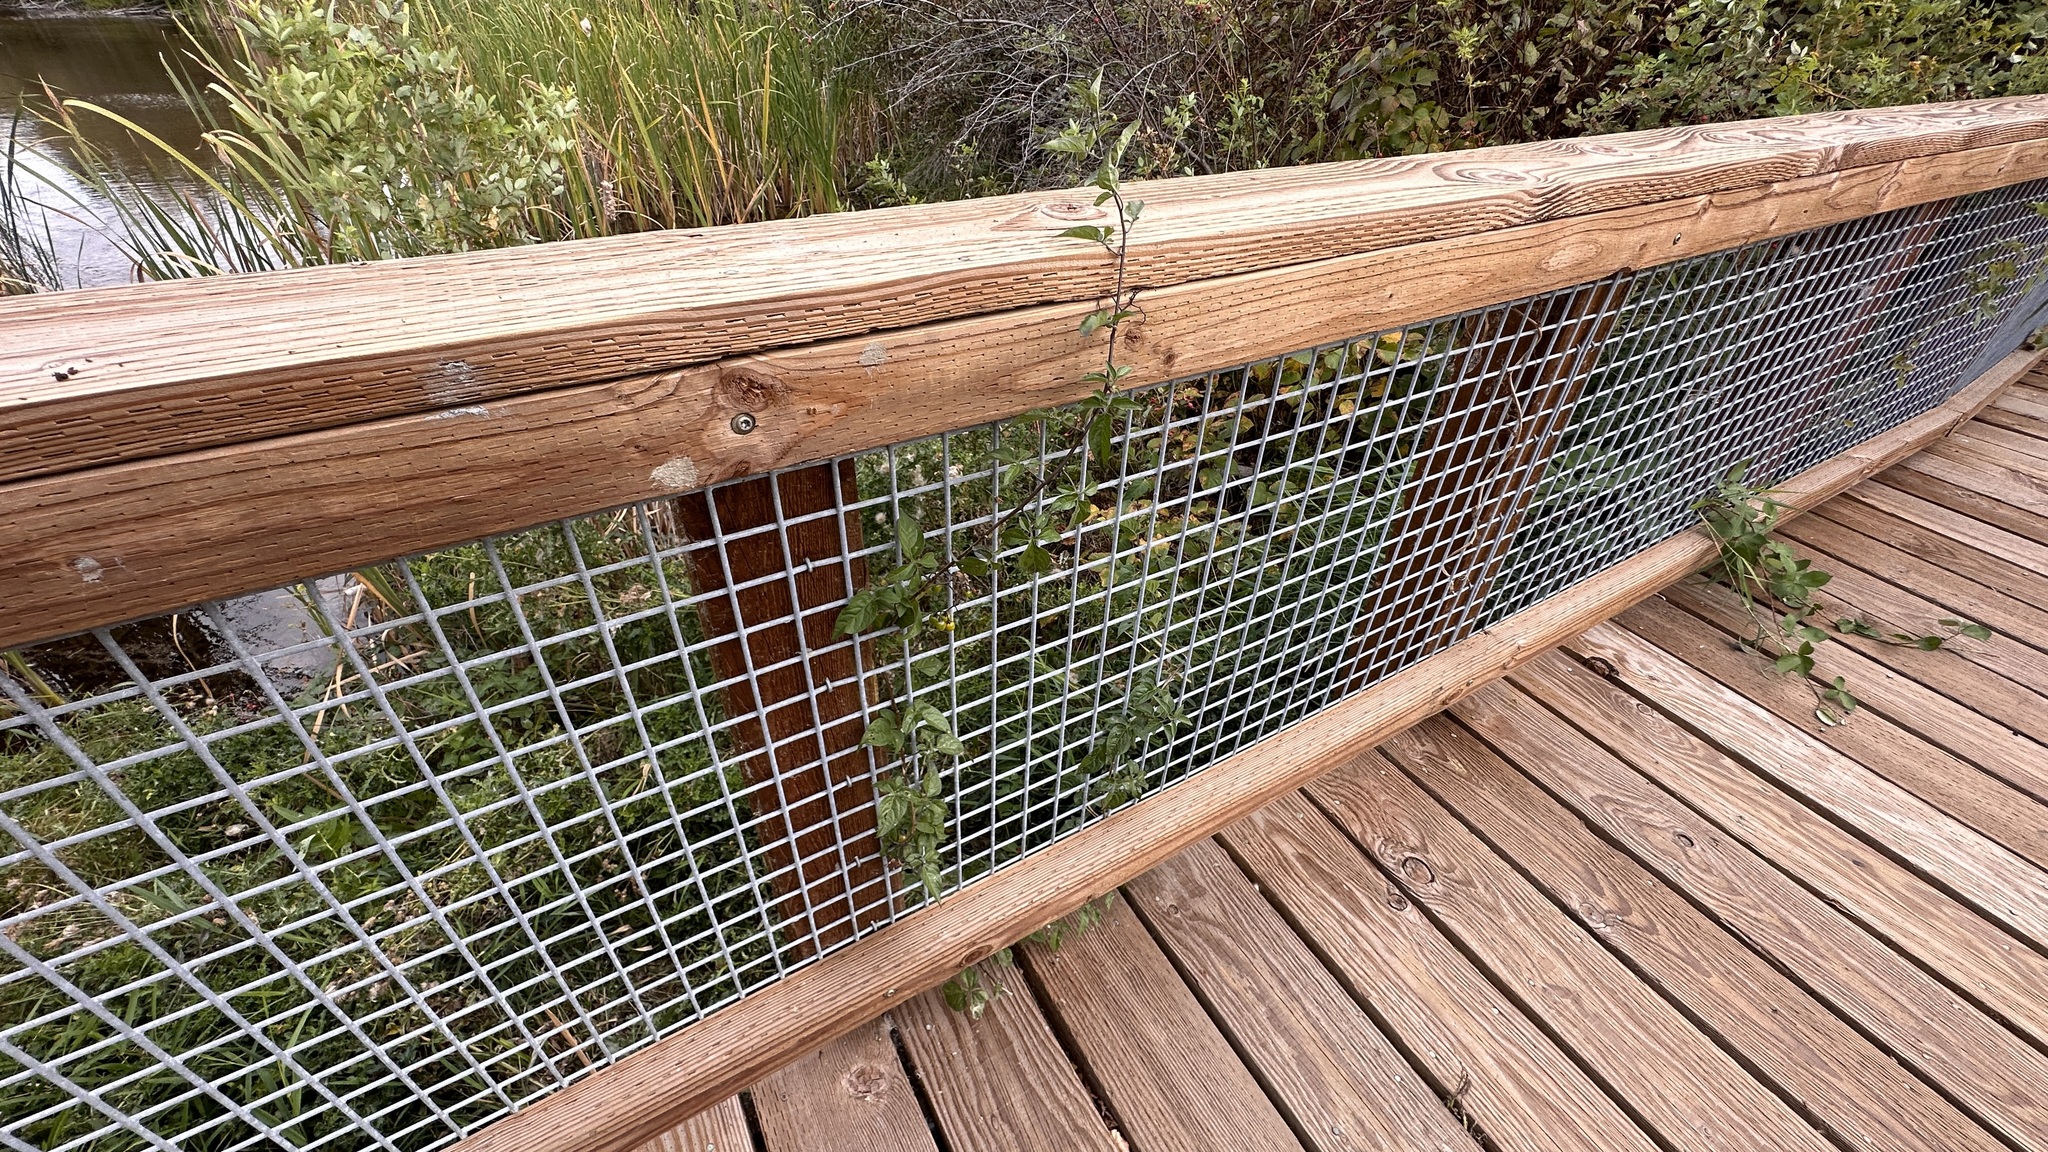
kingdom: Plantae
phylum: Tracheophyta
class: Magnoliopsida
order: Solanales
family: Solanaceae
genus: Solanum
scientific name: Solanum dulcamara
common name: Climbing nightshade
